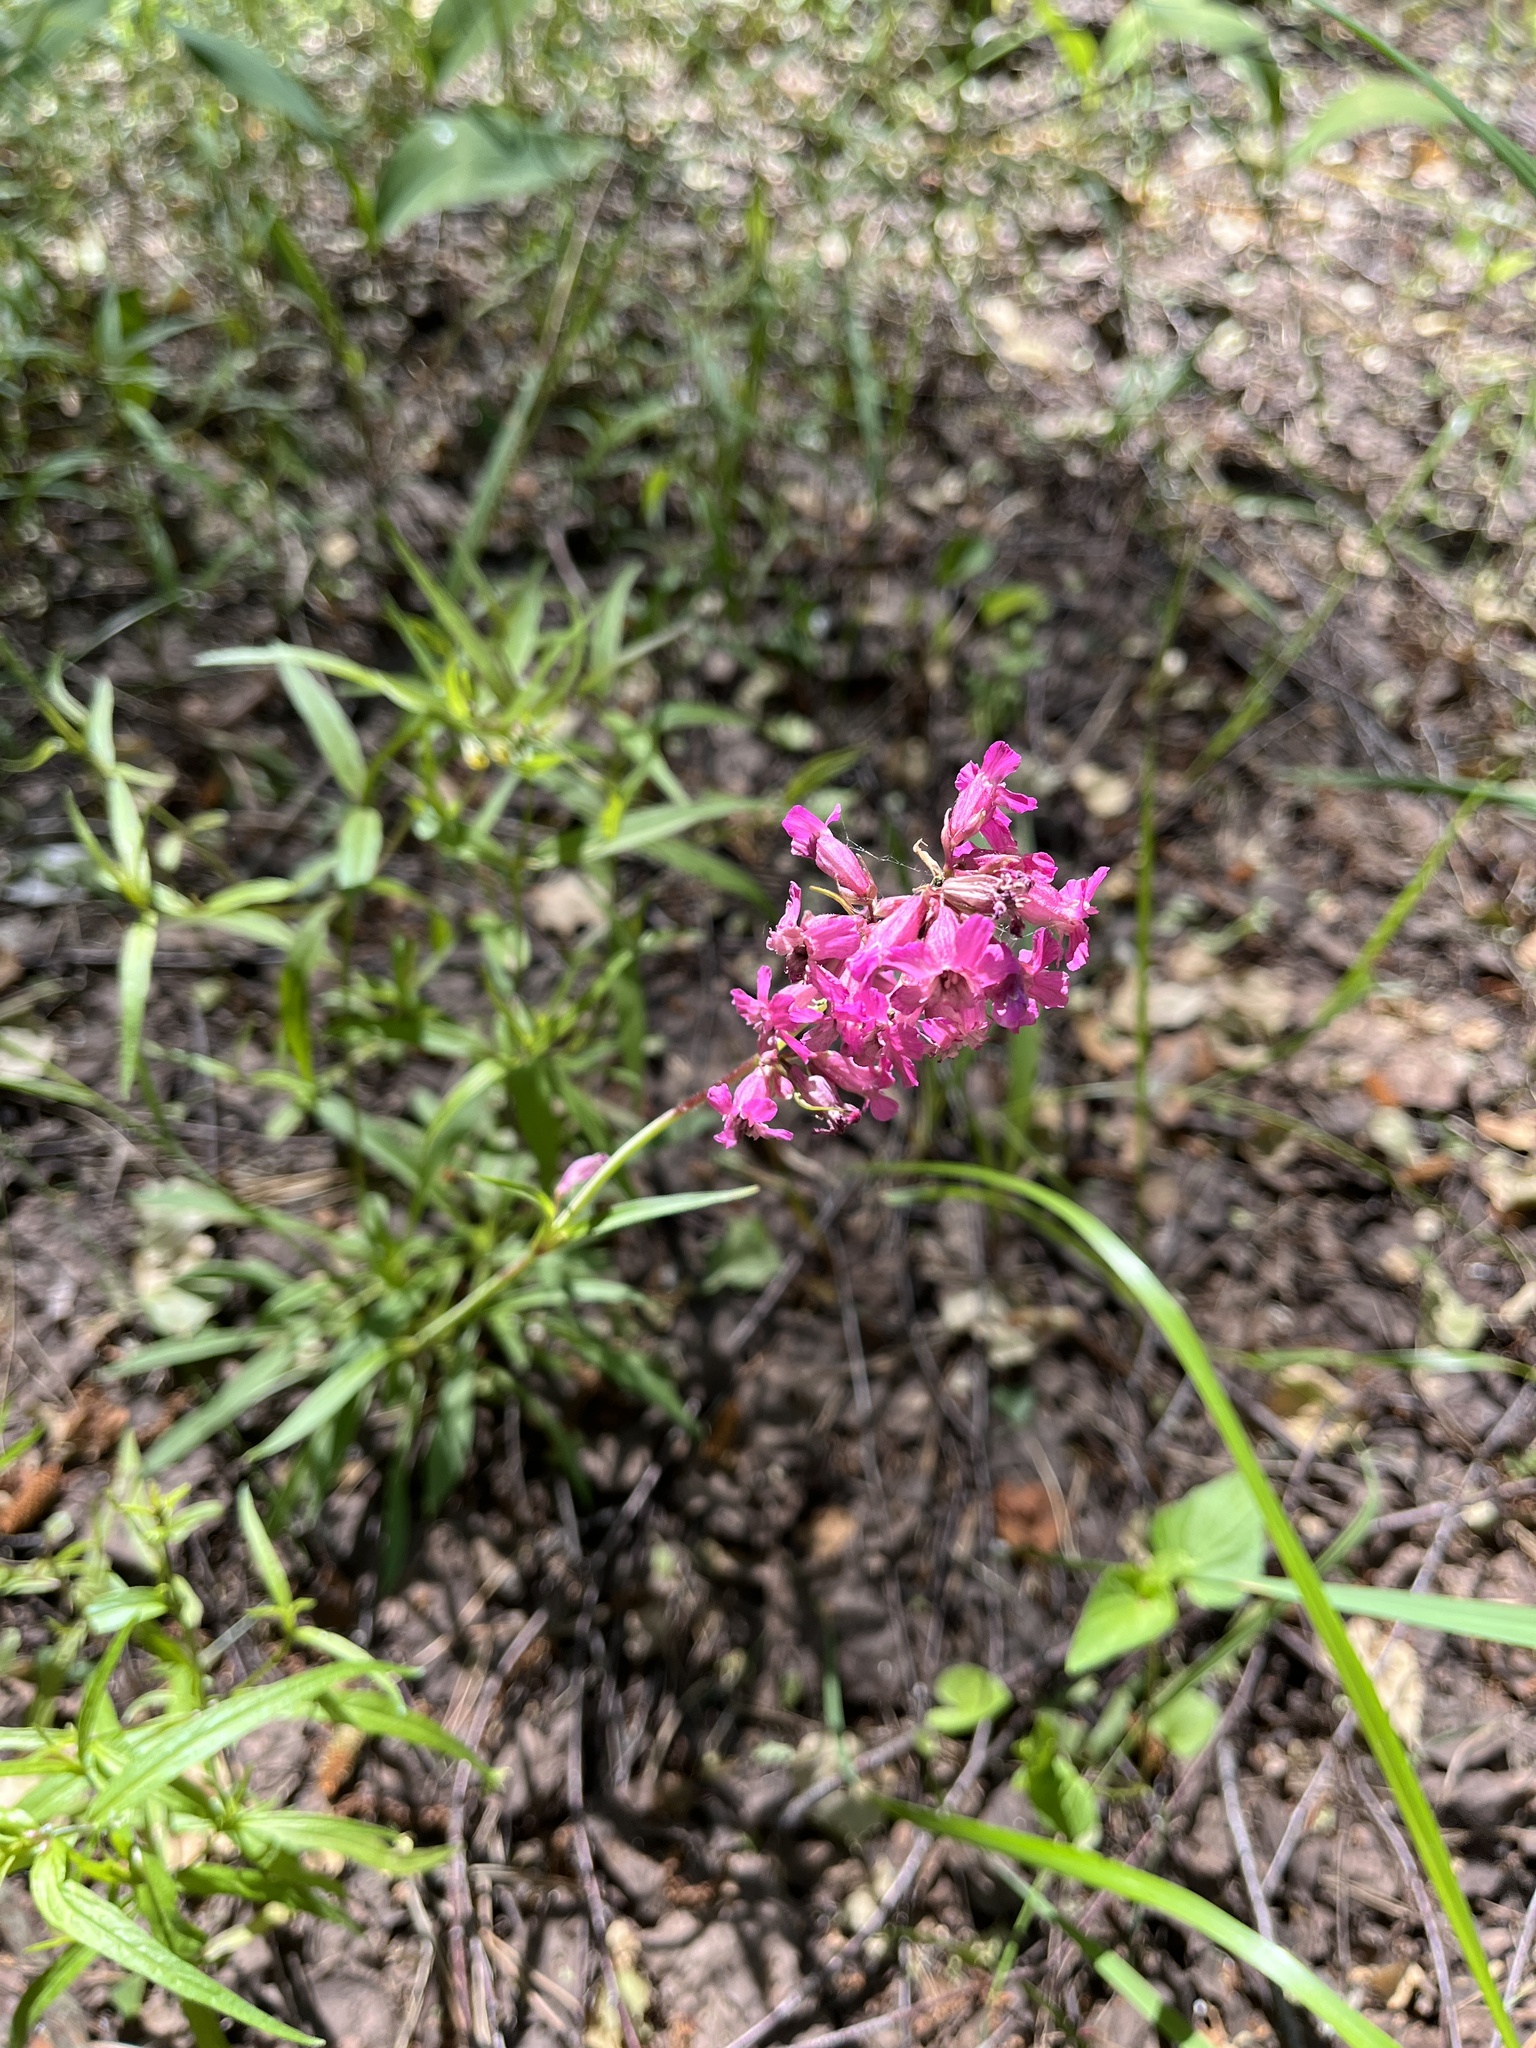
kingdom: Plantae
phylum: Tracheophyta
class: Magnoliopsida
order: Caryophyllales
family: Caryophyllaceae
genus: Viscaria
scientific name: Viscaria vulgaris
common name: Clammy campion
